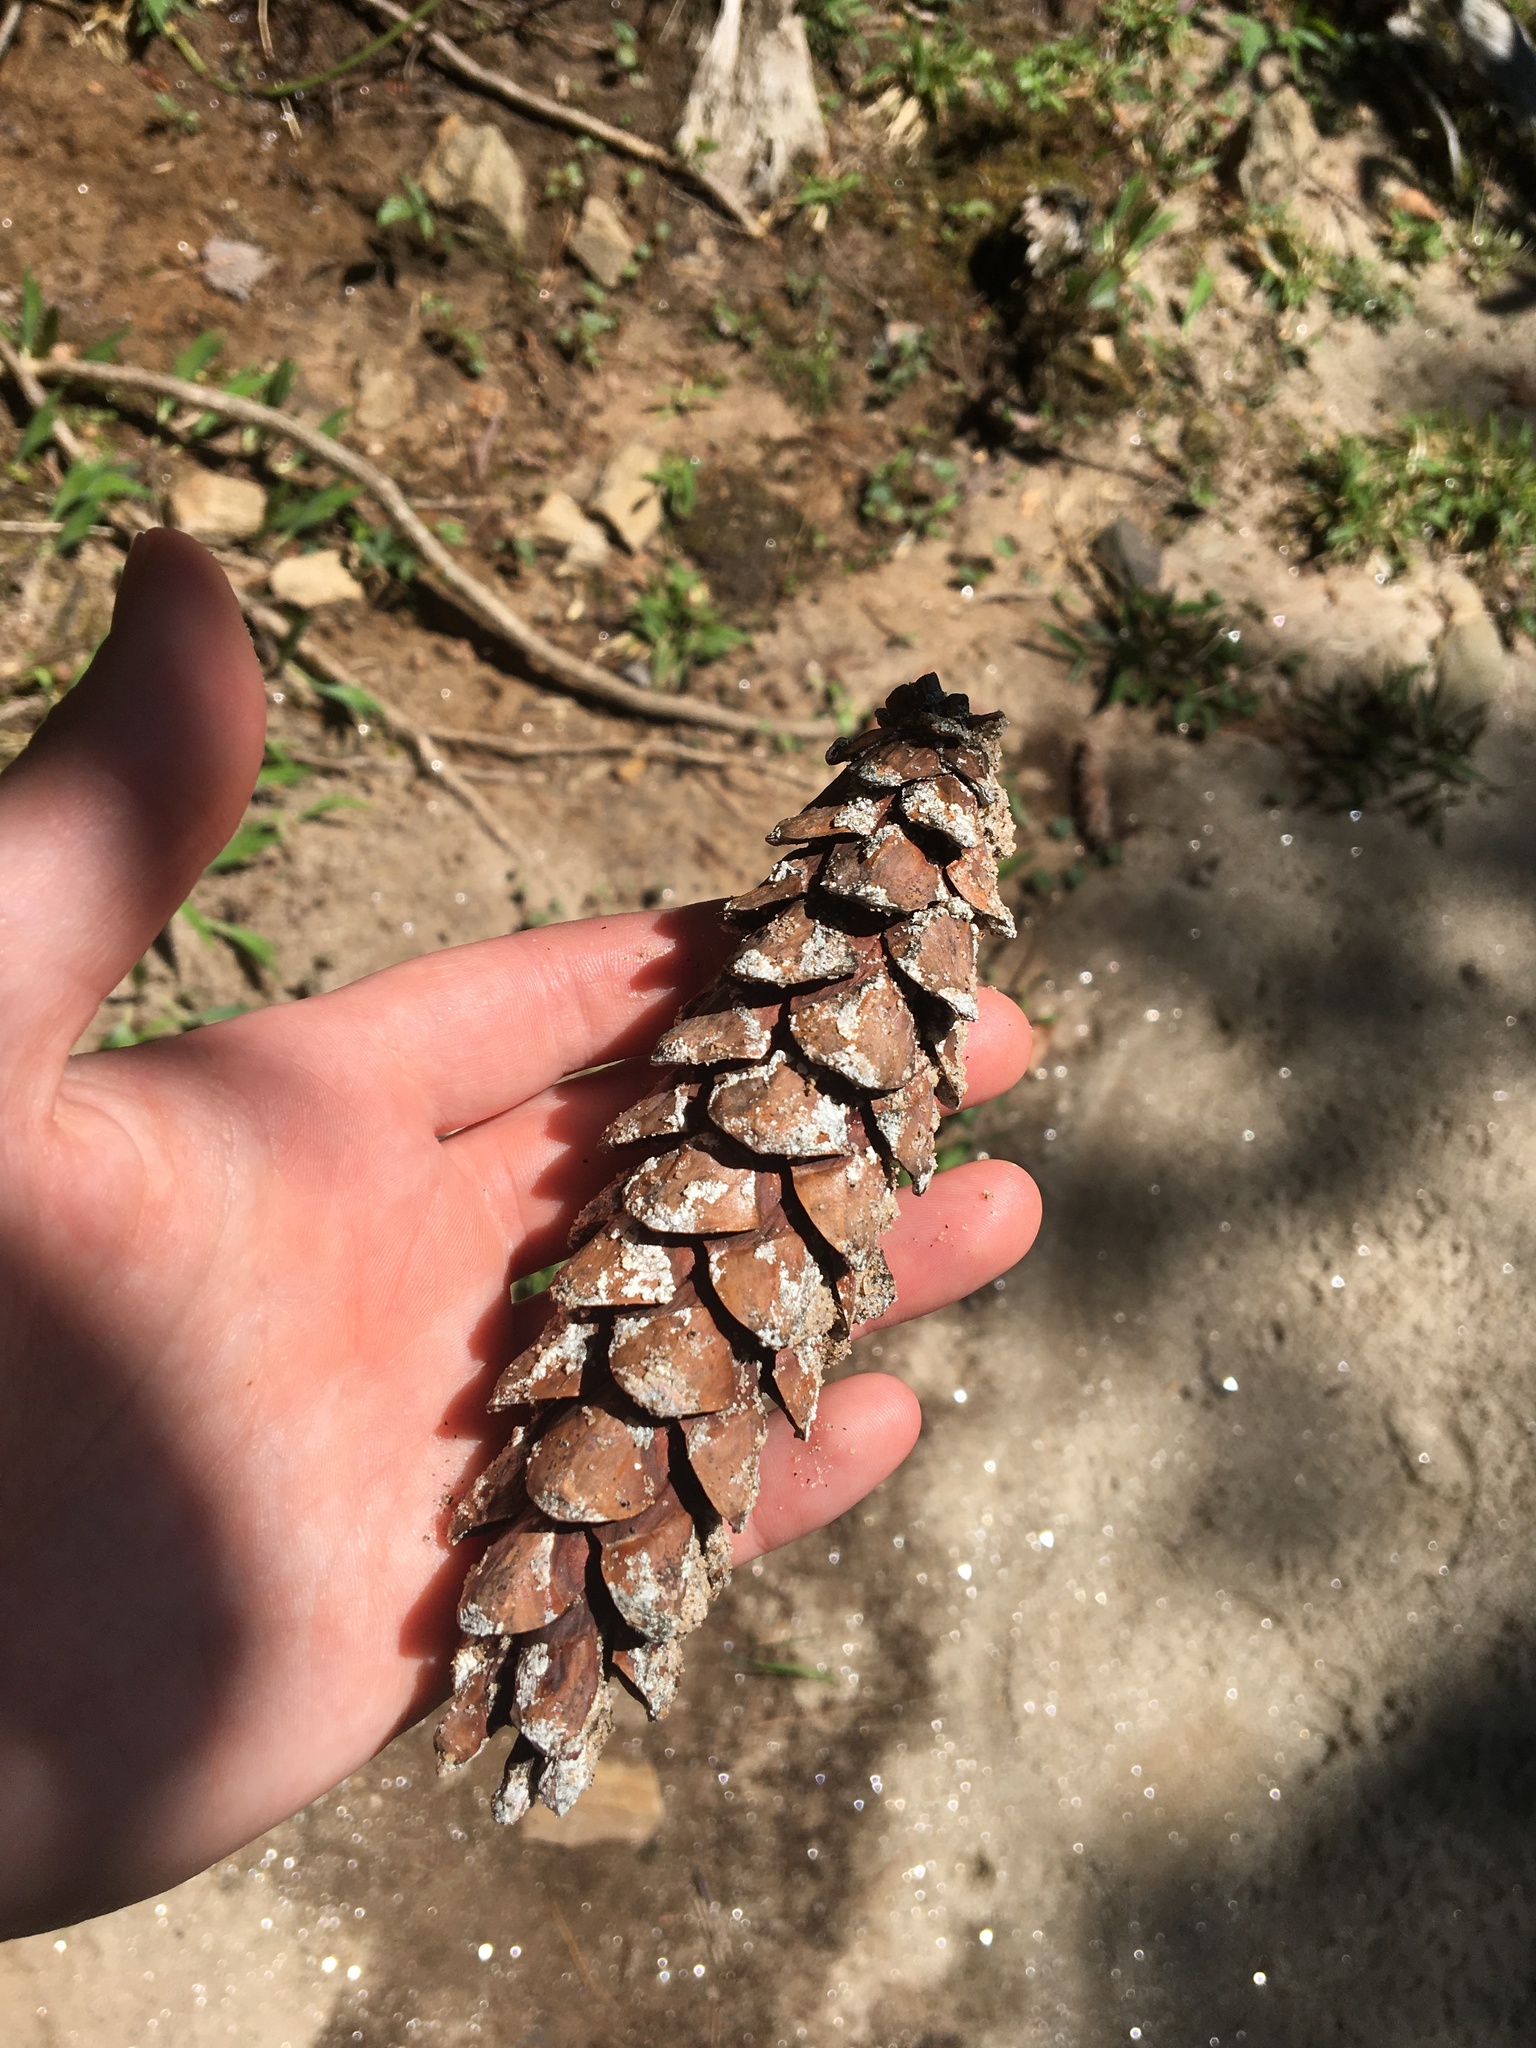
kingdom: Plantae
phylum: Tracheophyta
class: Pinopsida
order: Pinales
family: Pinaceae
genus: Pinus
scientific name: Pinus strobus
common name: Weymouth pine
